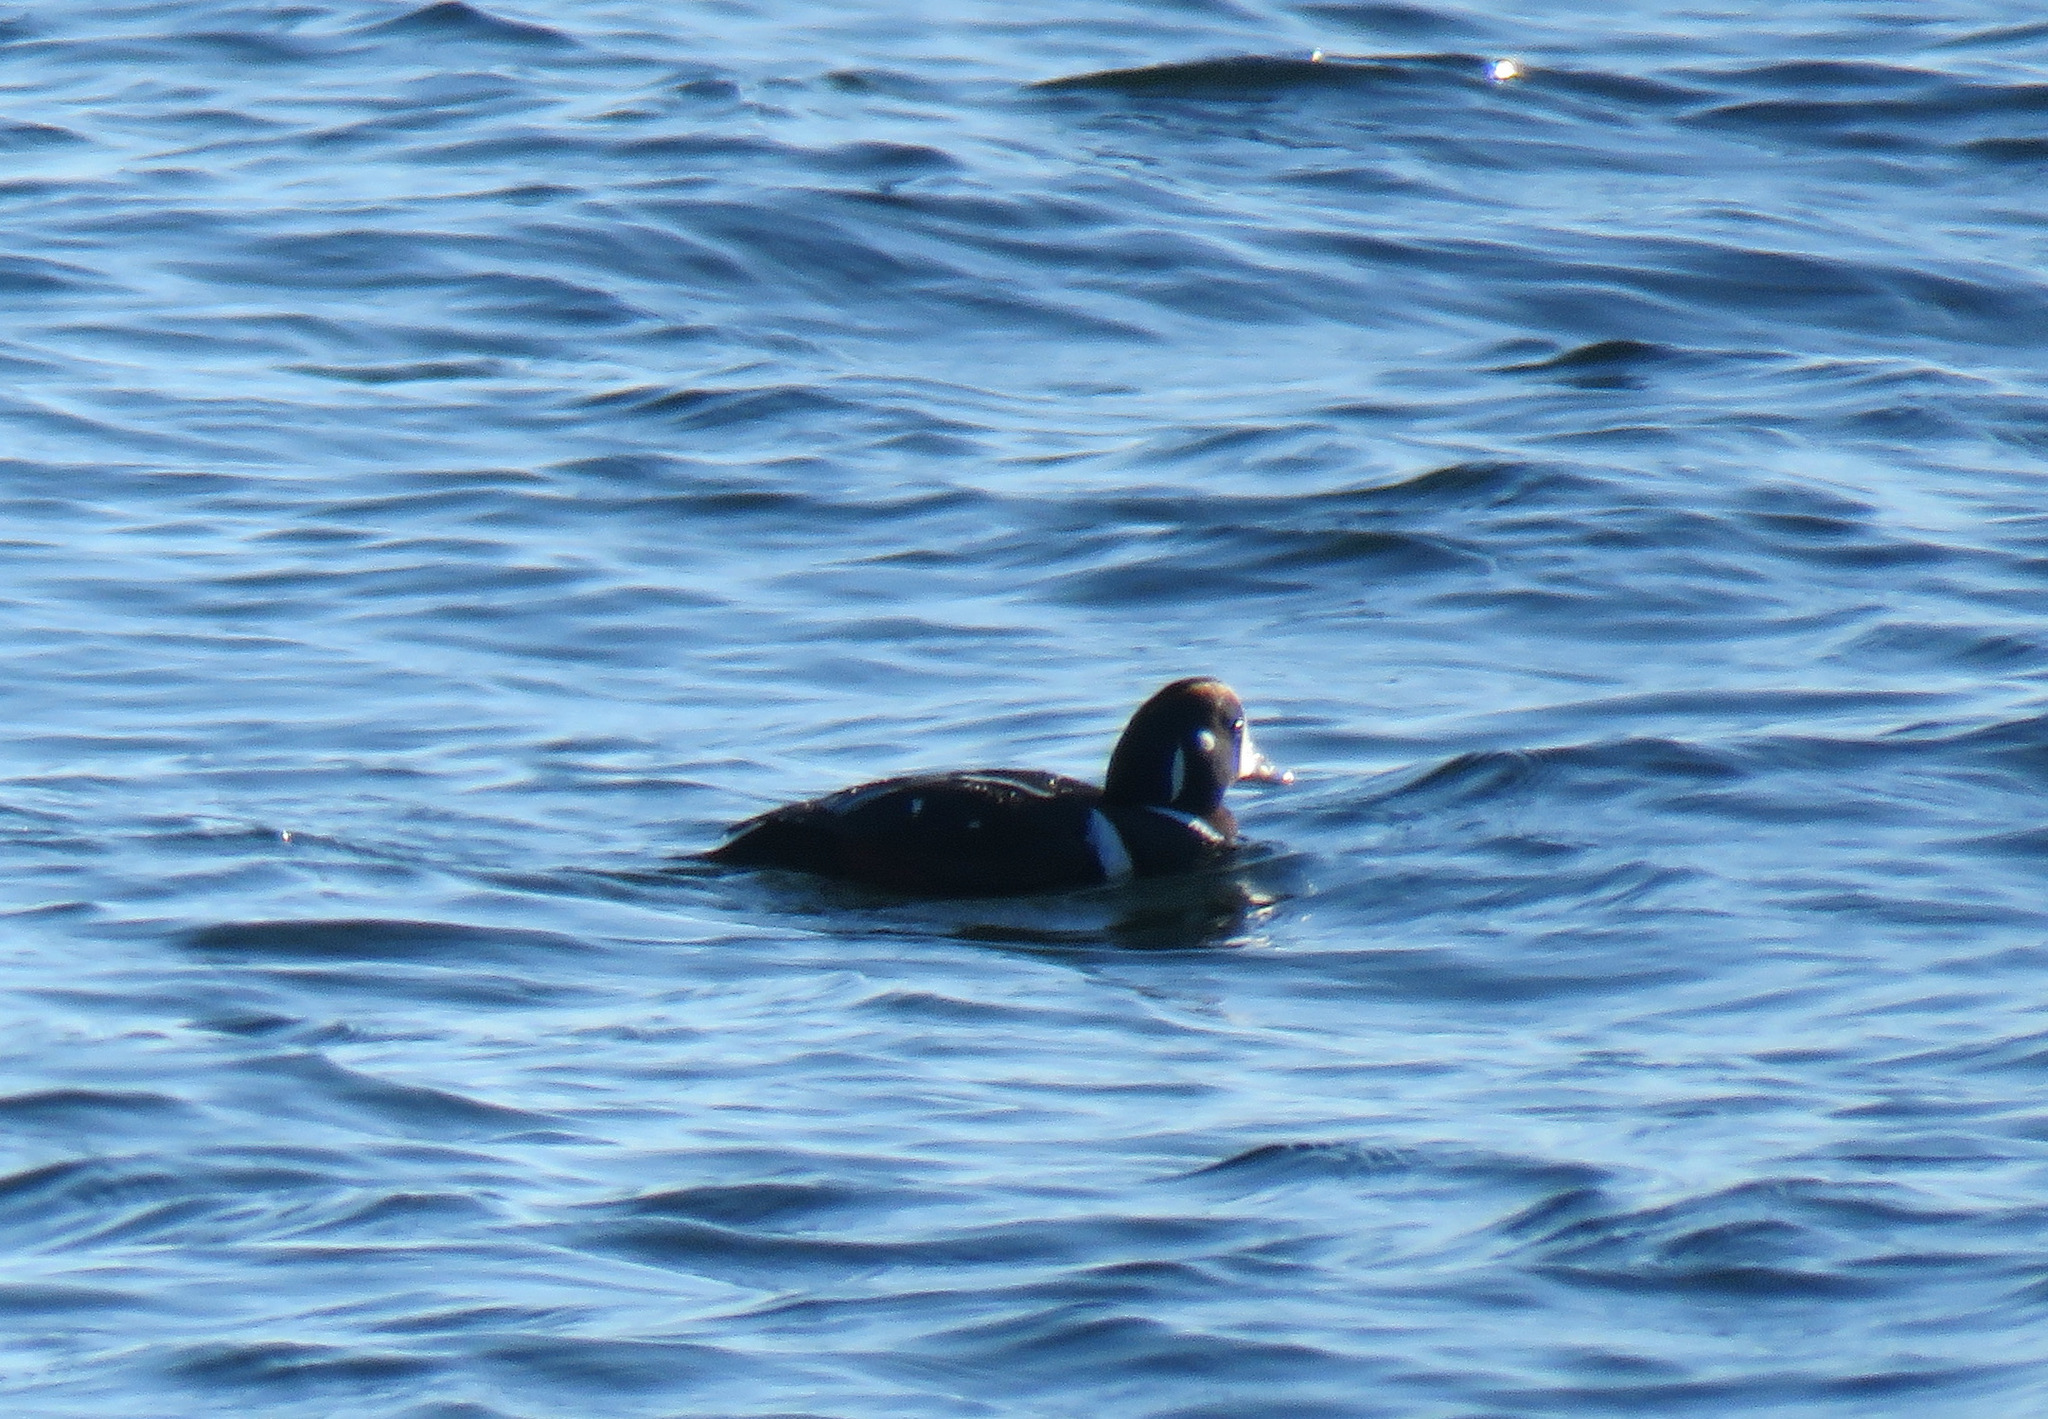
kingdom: Animalia
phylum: Chordata
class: Aves
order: Anseriformes
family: Anatidae
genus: Histrionicus
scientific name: Histrionicus histrionicus
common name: Harlequin duck
